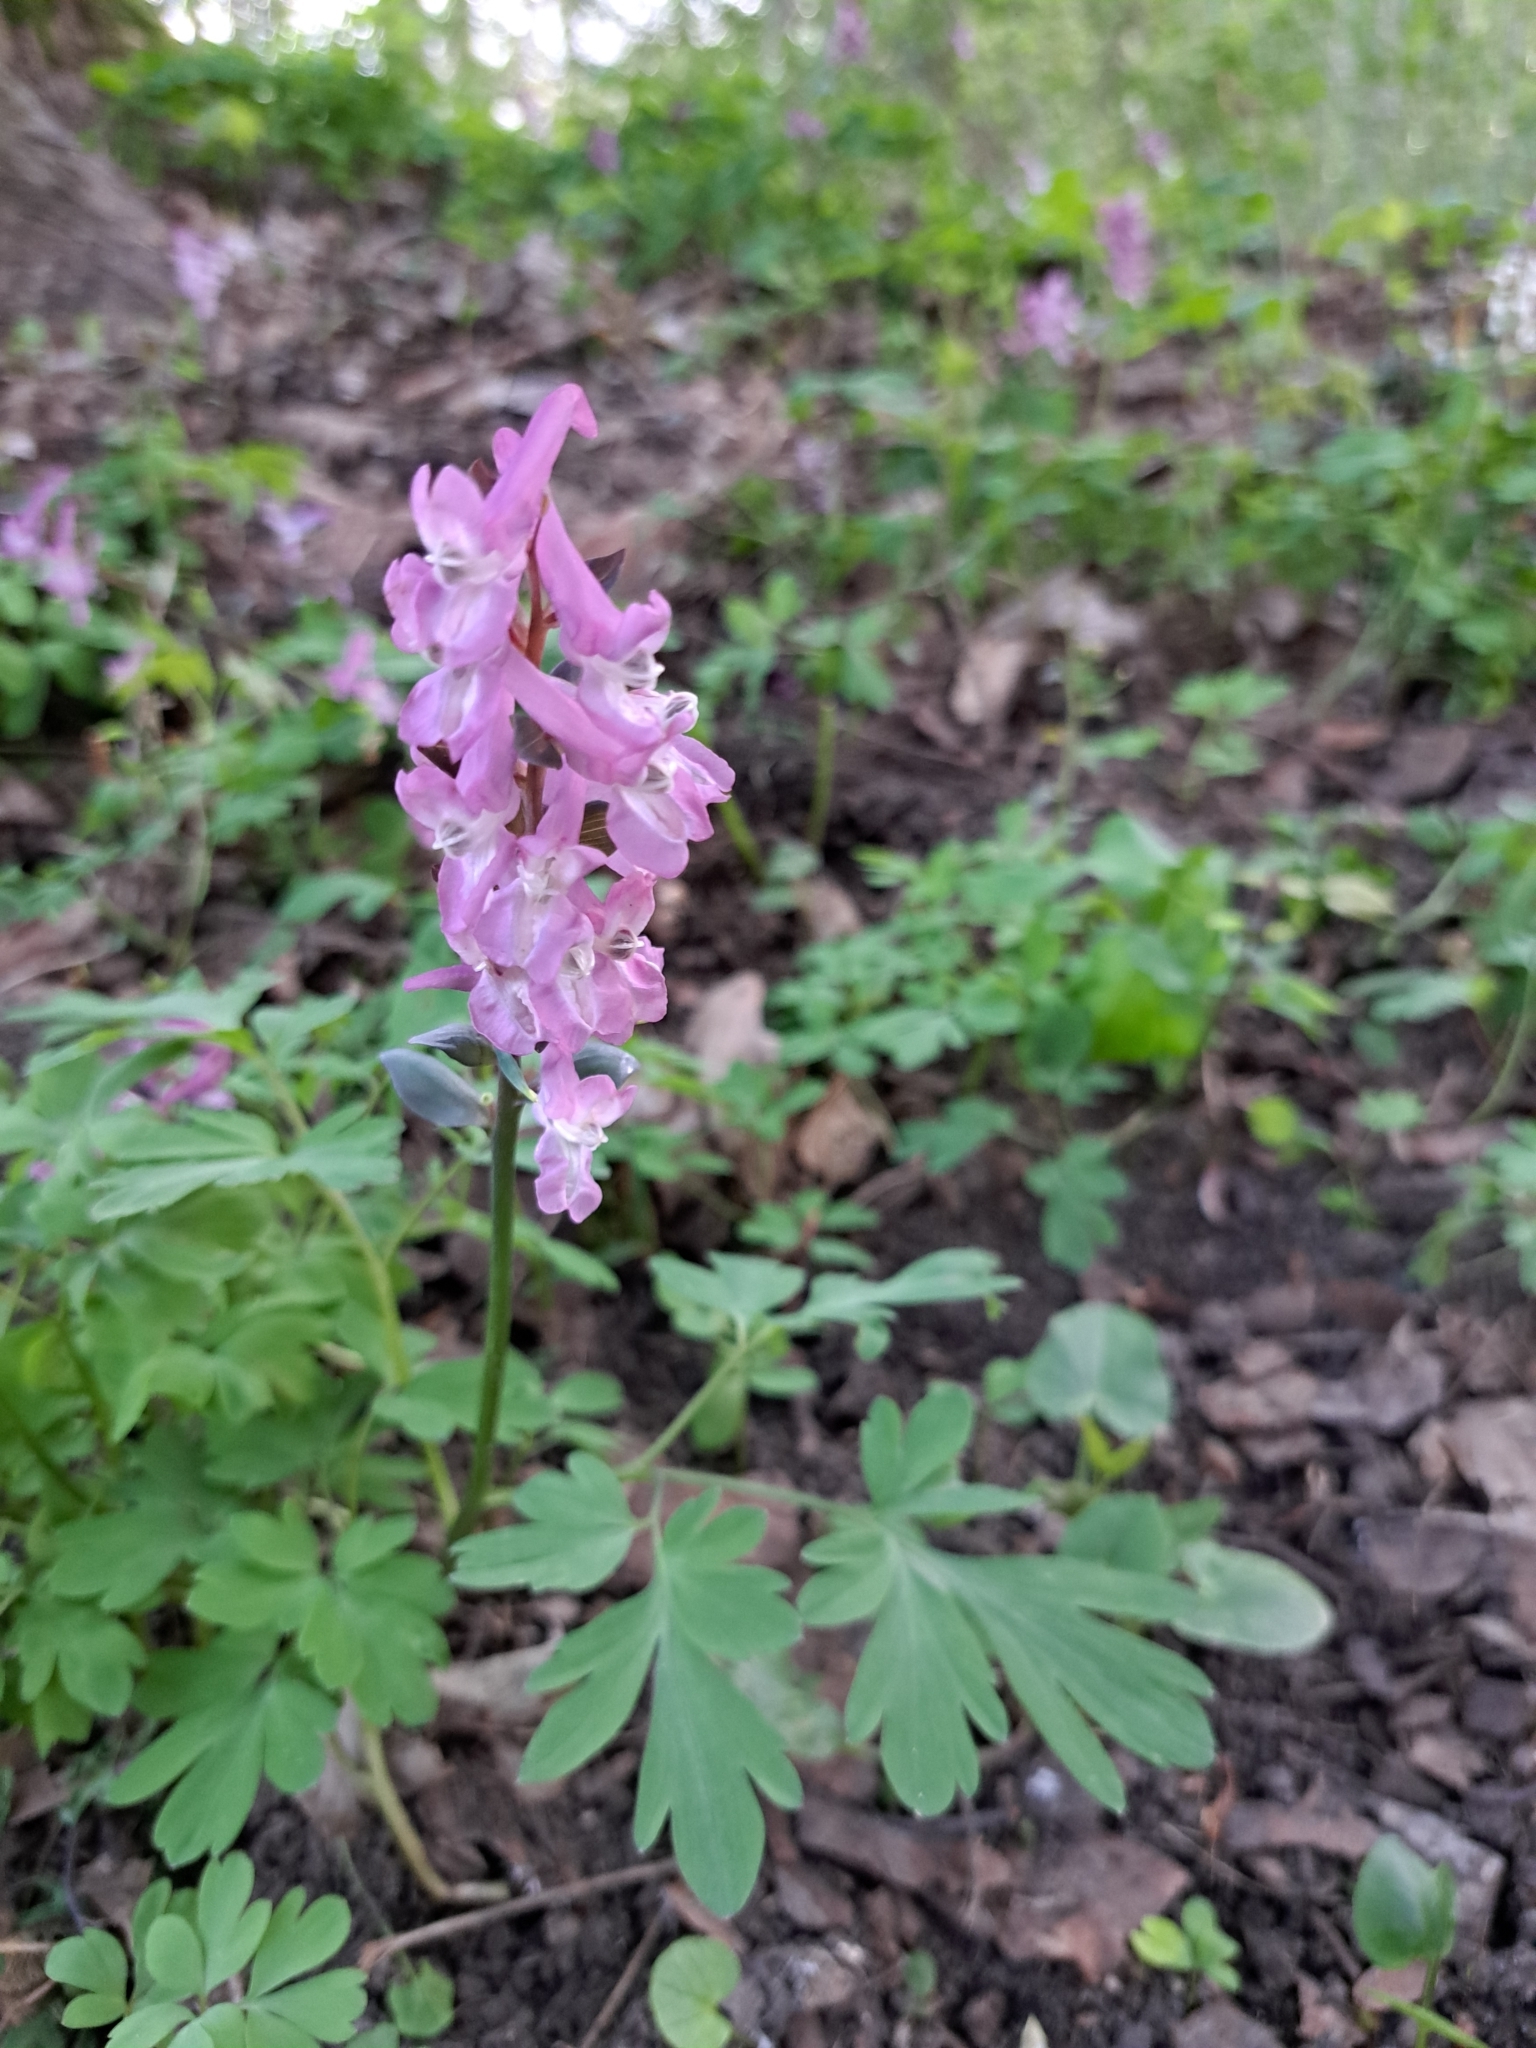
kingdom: Plantae
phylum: Tracheophyta
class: Magnoliopsida
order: Ranunculales
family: Papaveraceae
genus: Corydalis
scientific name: Corydalis cava
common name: Hollowroot
